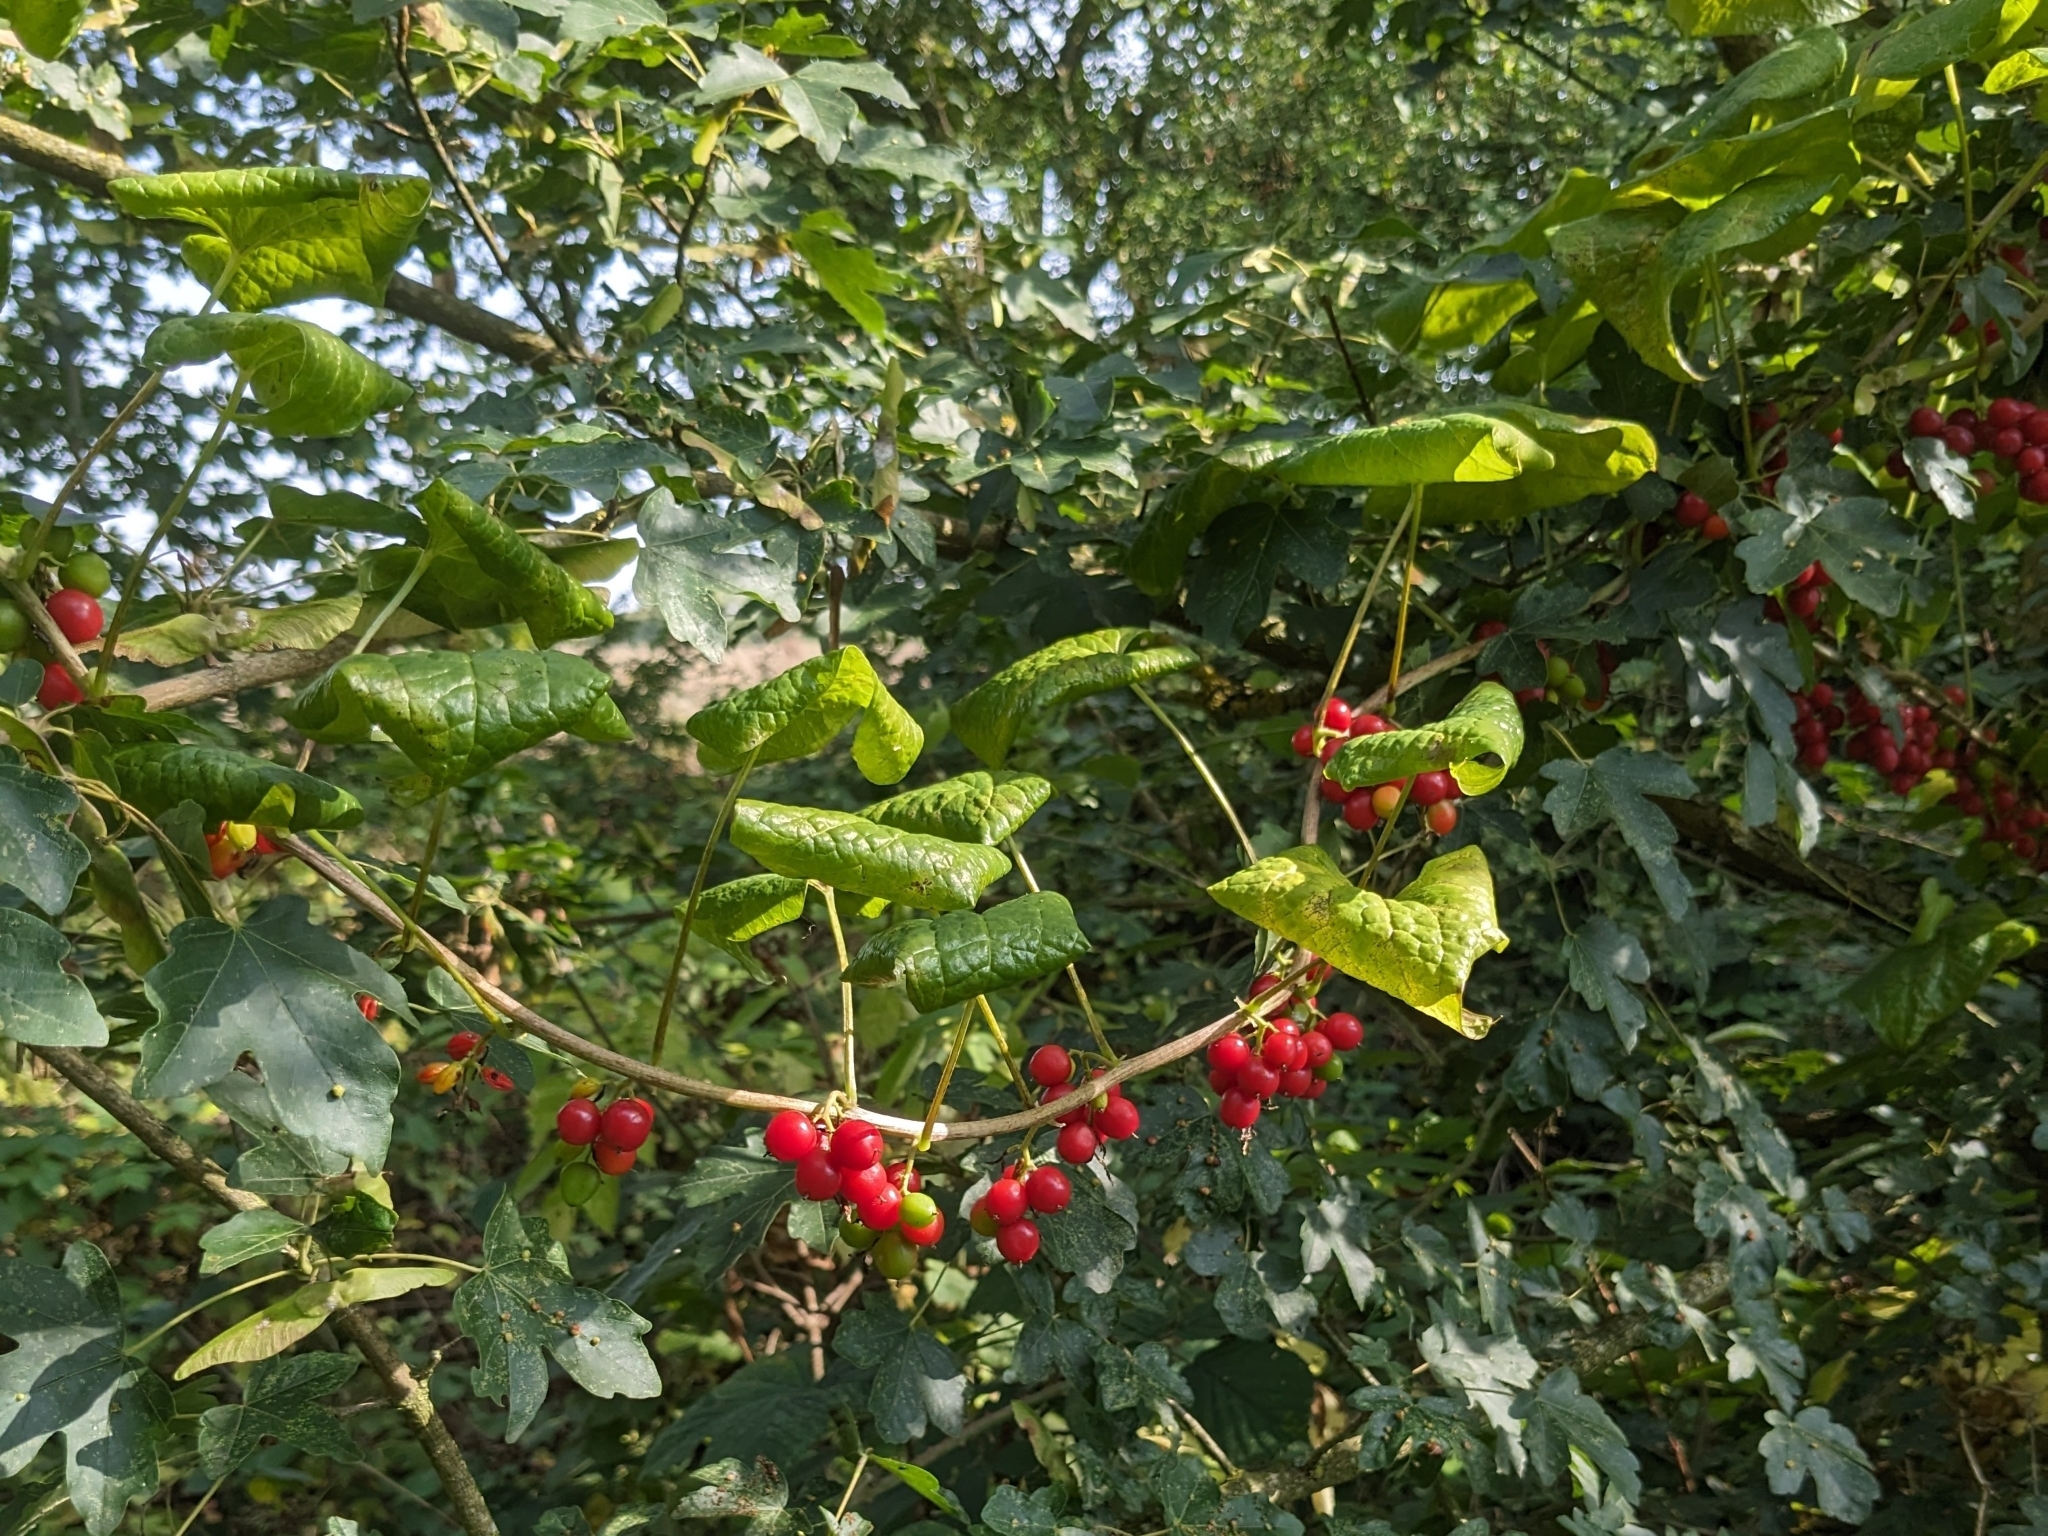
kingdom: Plantae
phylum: Tracheophyta
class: Liliopsida
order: Dioscoreales
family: Dioscoreaceae
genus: Dioscorea
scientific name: Dioscorea communis
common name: Black-bindweed
